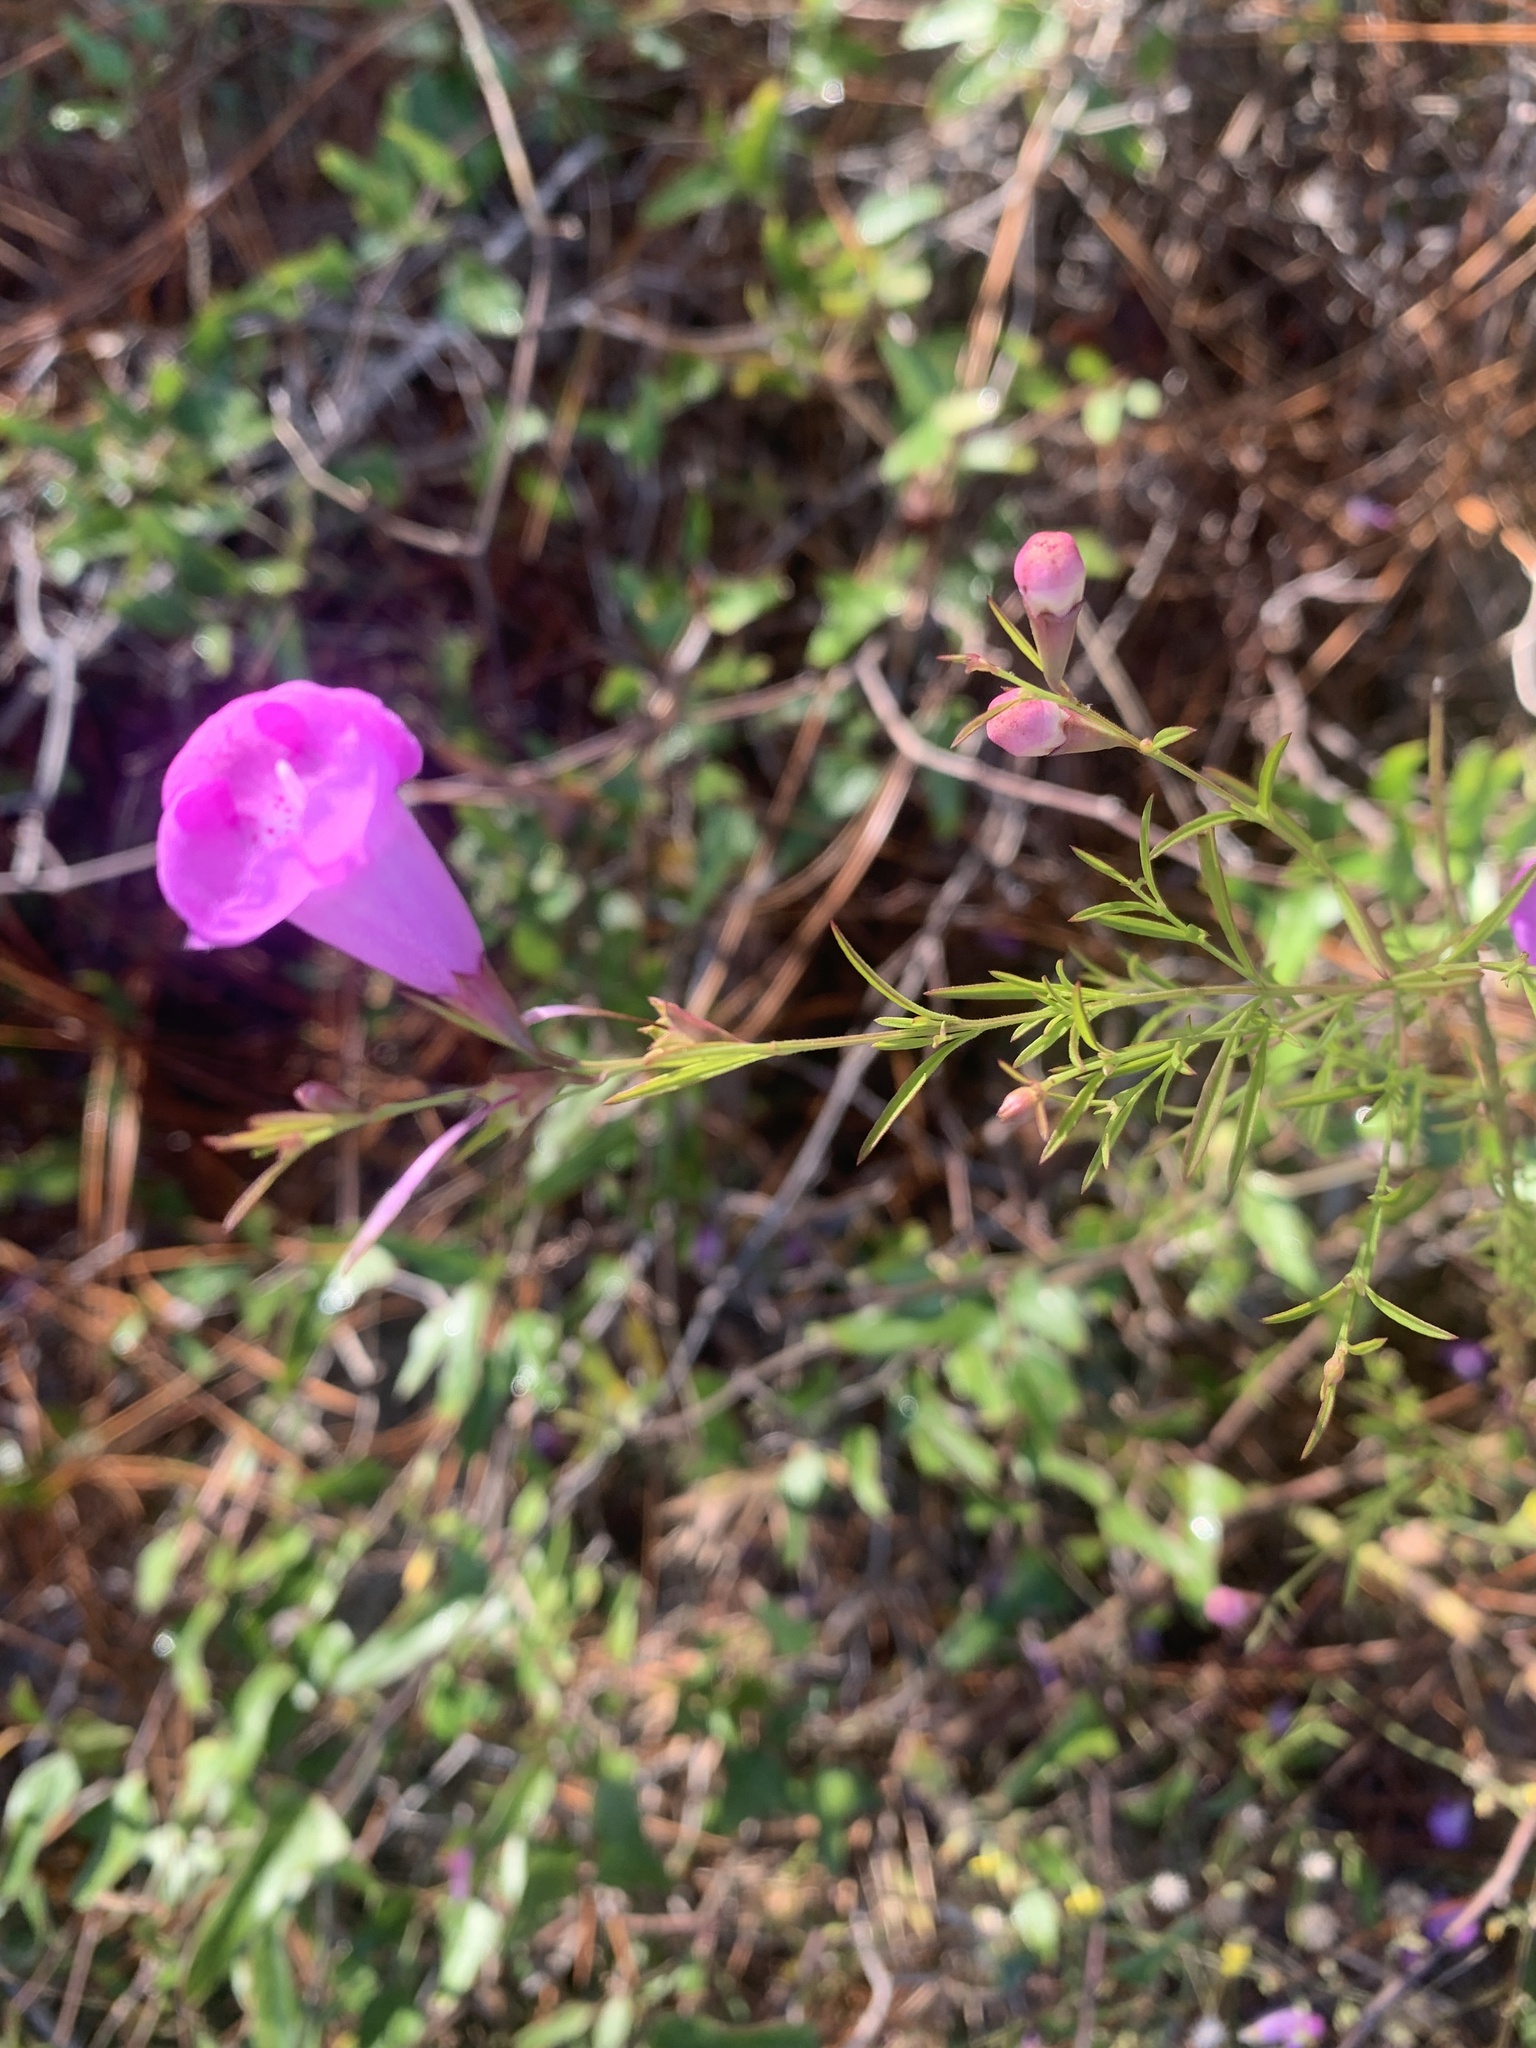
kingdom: Plantae
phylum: Tracheophyta
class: Magnoliopsida
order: Lamiales
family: Orobanchaceae
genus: Agalinis
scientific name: Agalinis purpurea
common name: Purple false foxglove
